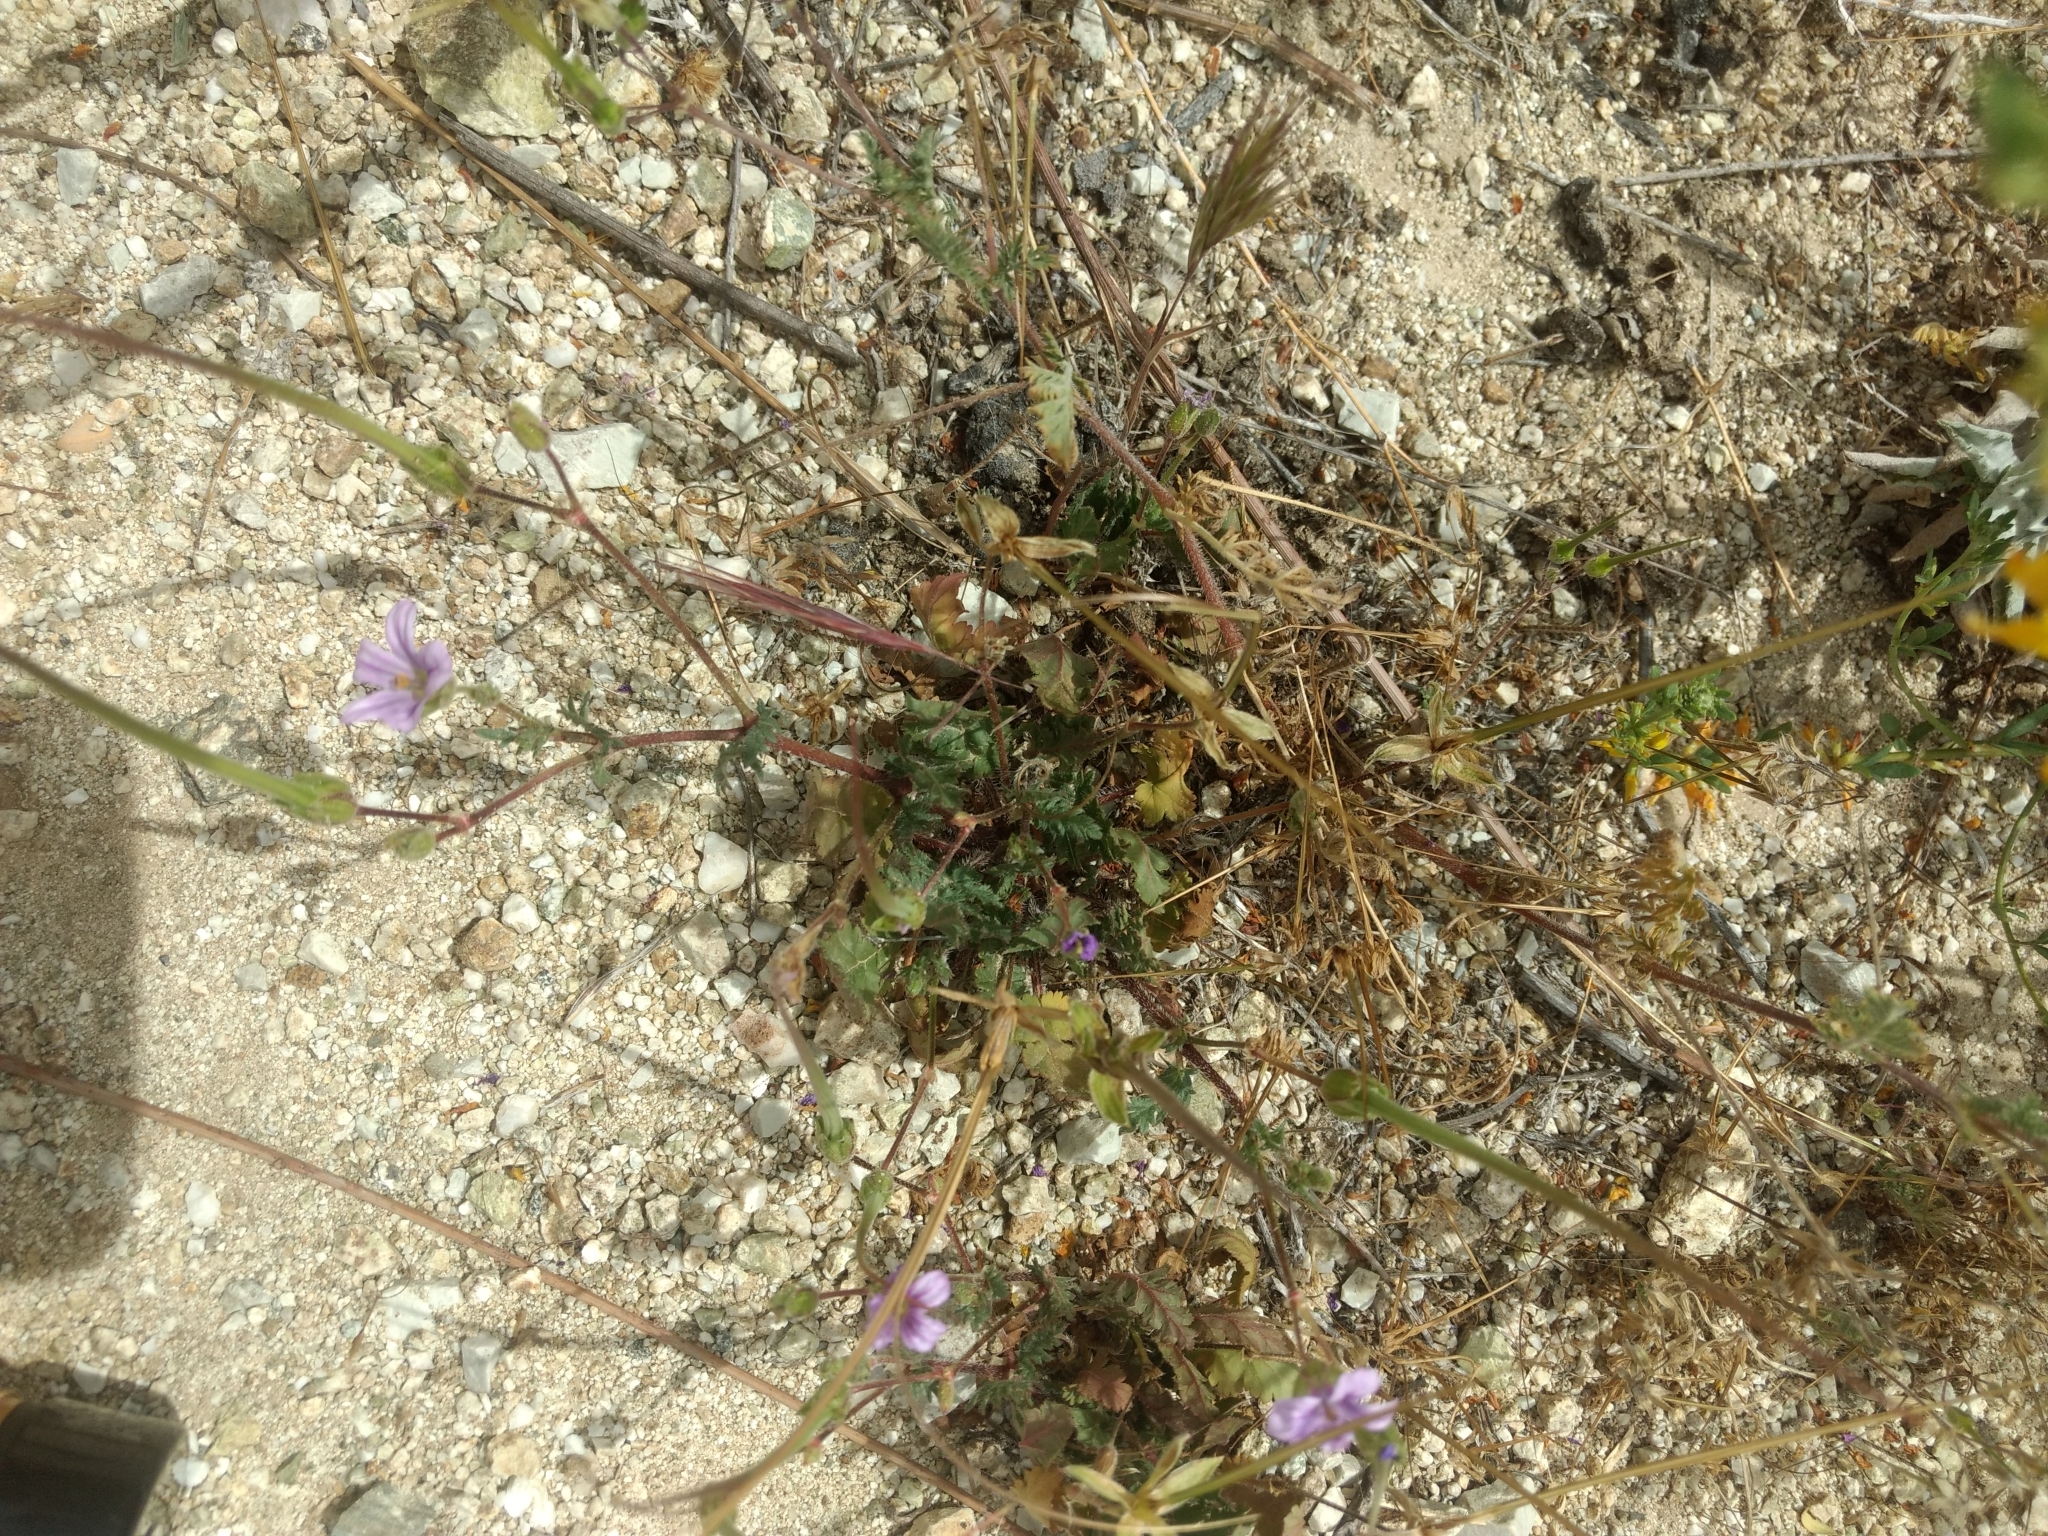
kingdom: Plantae
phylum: Tracheophyta
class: Magnoliopsida
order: Geraniales
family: Geraniaceae
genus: Erodium
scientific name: Erodium botrys
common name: Mediterranean stork's-bill
